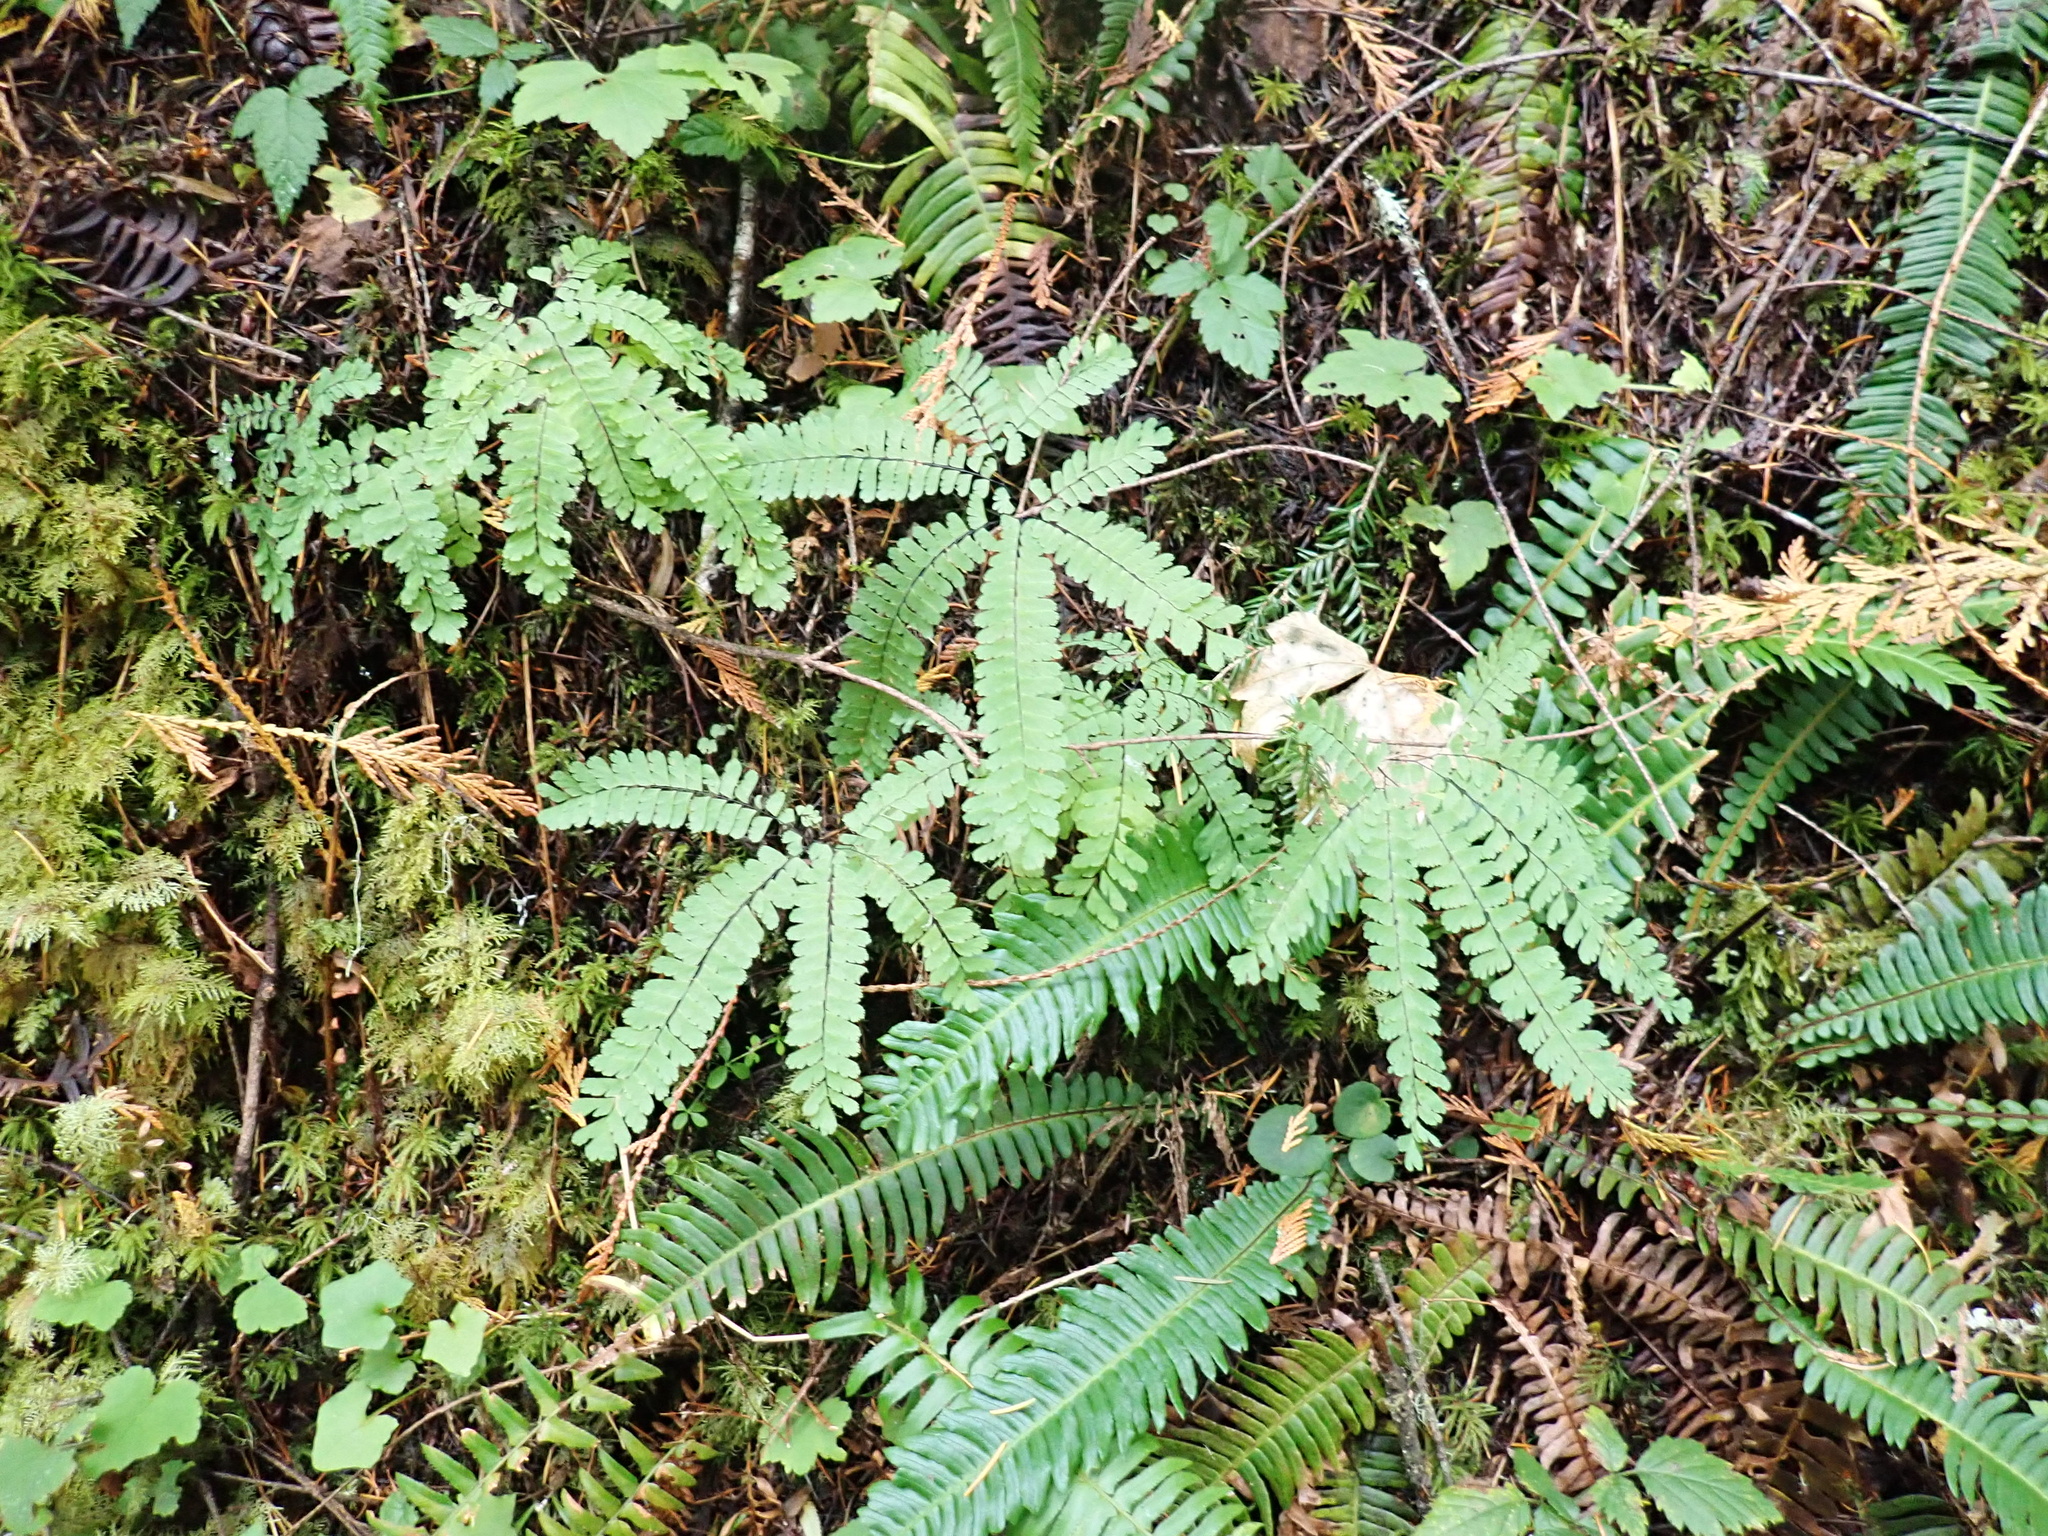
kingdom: Plantae
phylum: Tracheophyta
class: Polypodiopsida
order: Polypodiales
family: Pteridaceae
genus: Adiantum
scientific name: Adiantum aleuticum
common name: Aleutian maidenhair fern
